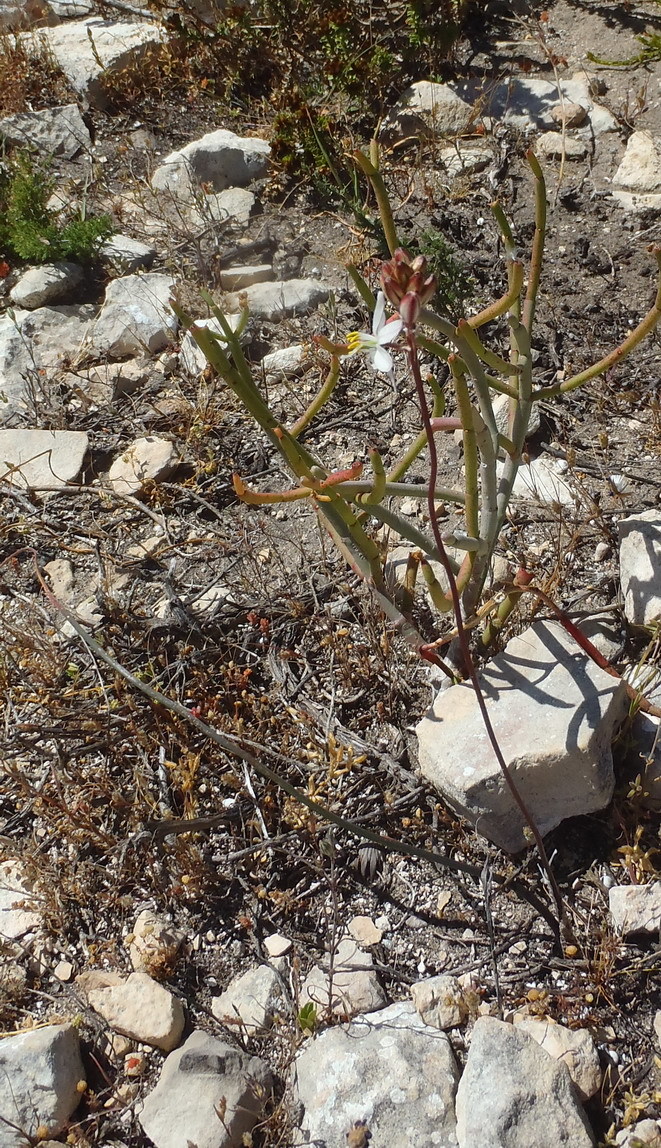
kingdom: Plantae
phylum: Tracheophyta
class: Liliopsida
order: Asparagales
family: Asparagaceae
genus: Drimia
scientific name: Drimia exuviata
